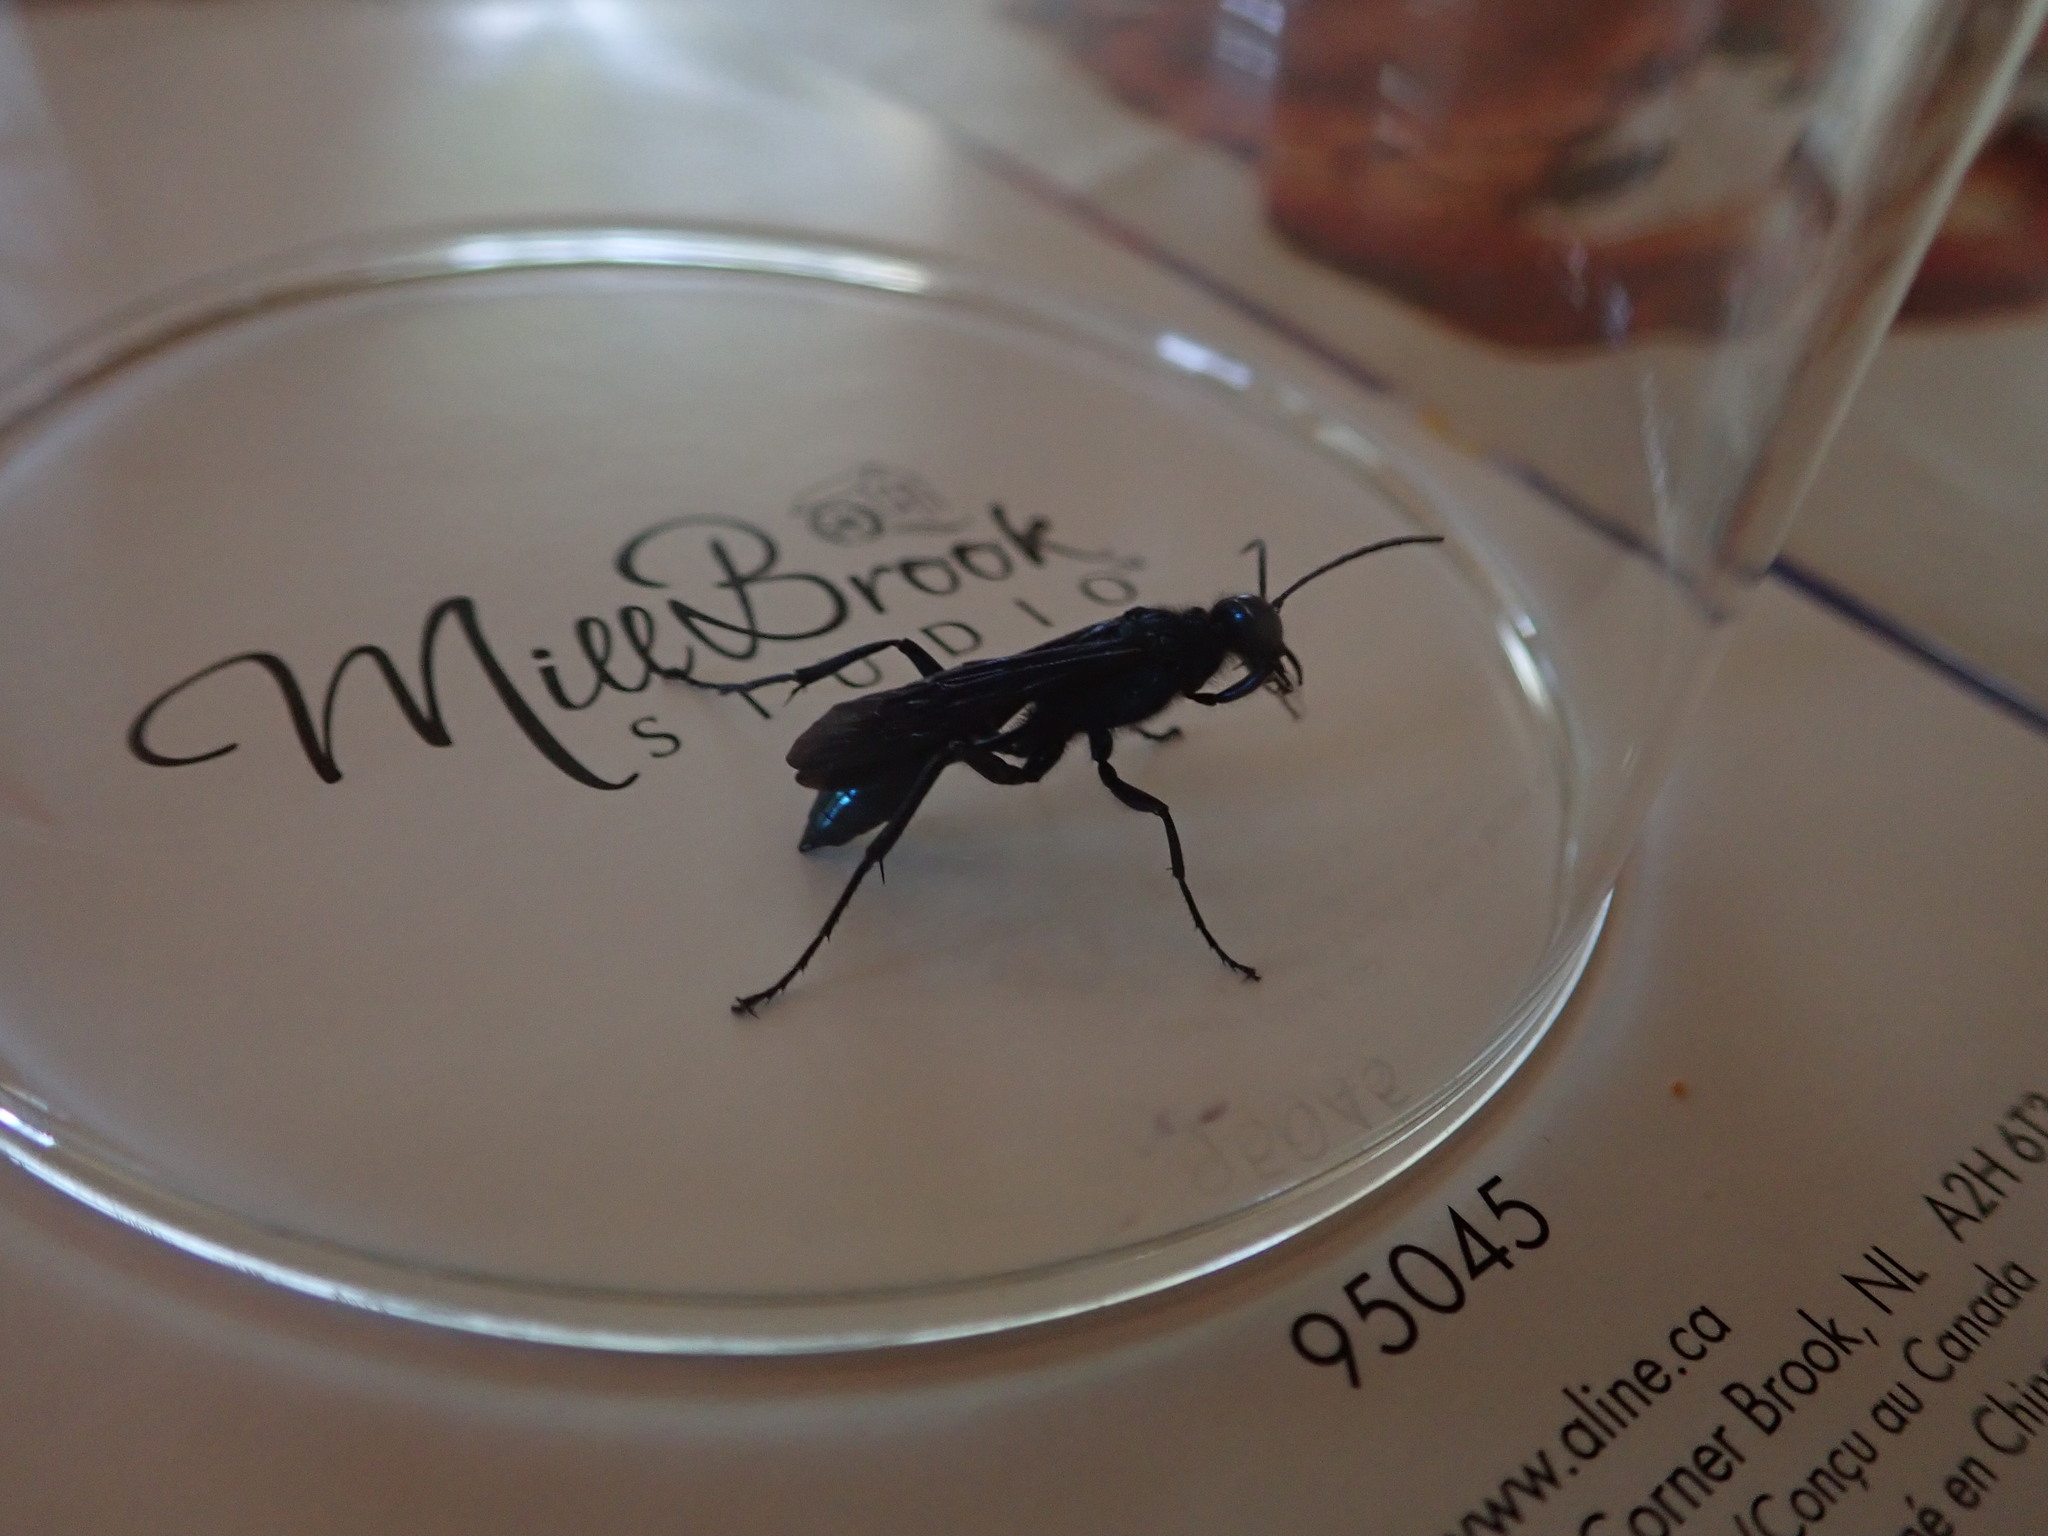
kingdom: Animalia
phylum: Arthropoda
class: Insecta
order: Hymenoptera
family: Sphecidae
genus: Chalybion
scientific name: Chalybion californicum
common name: Mud dauber
